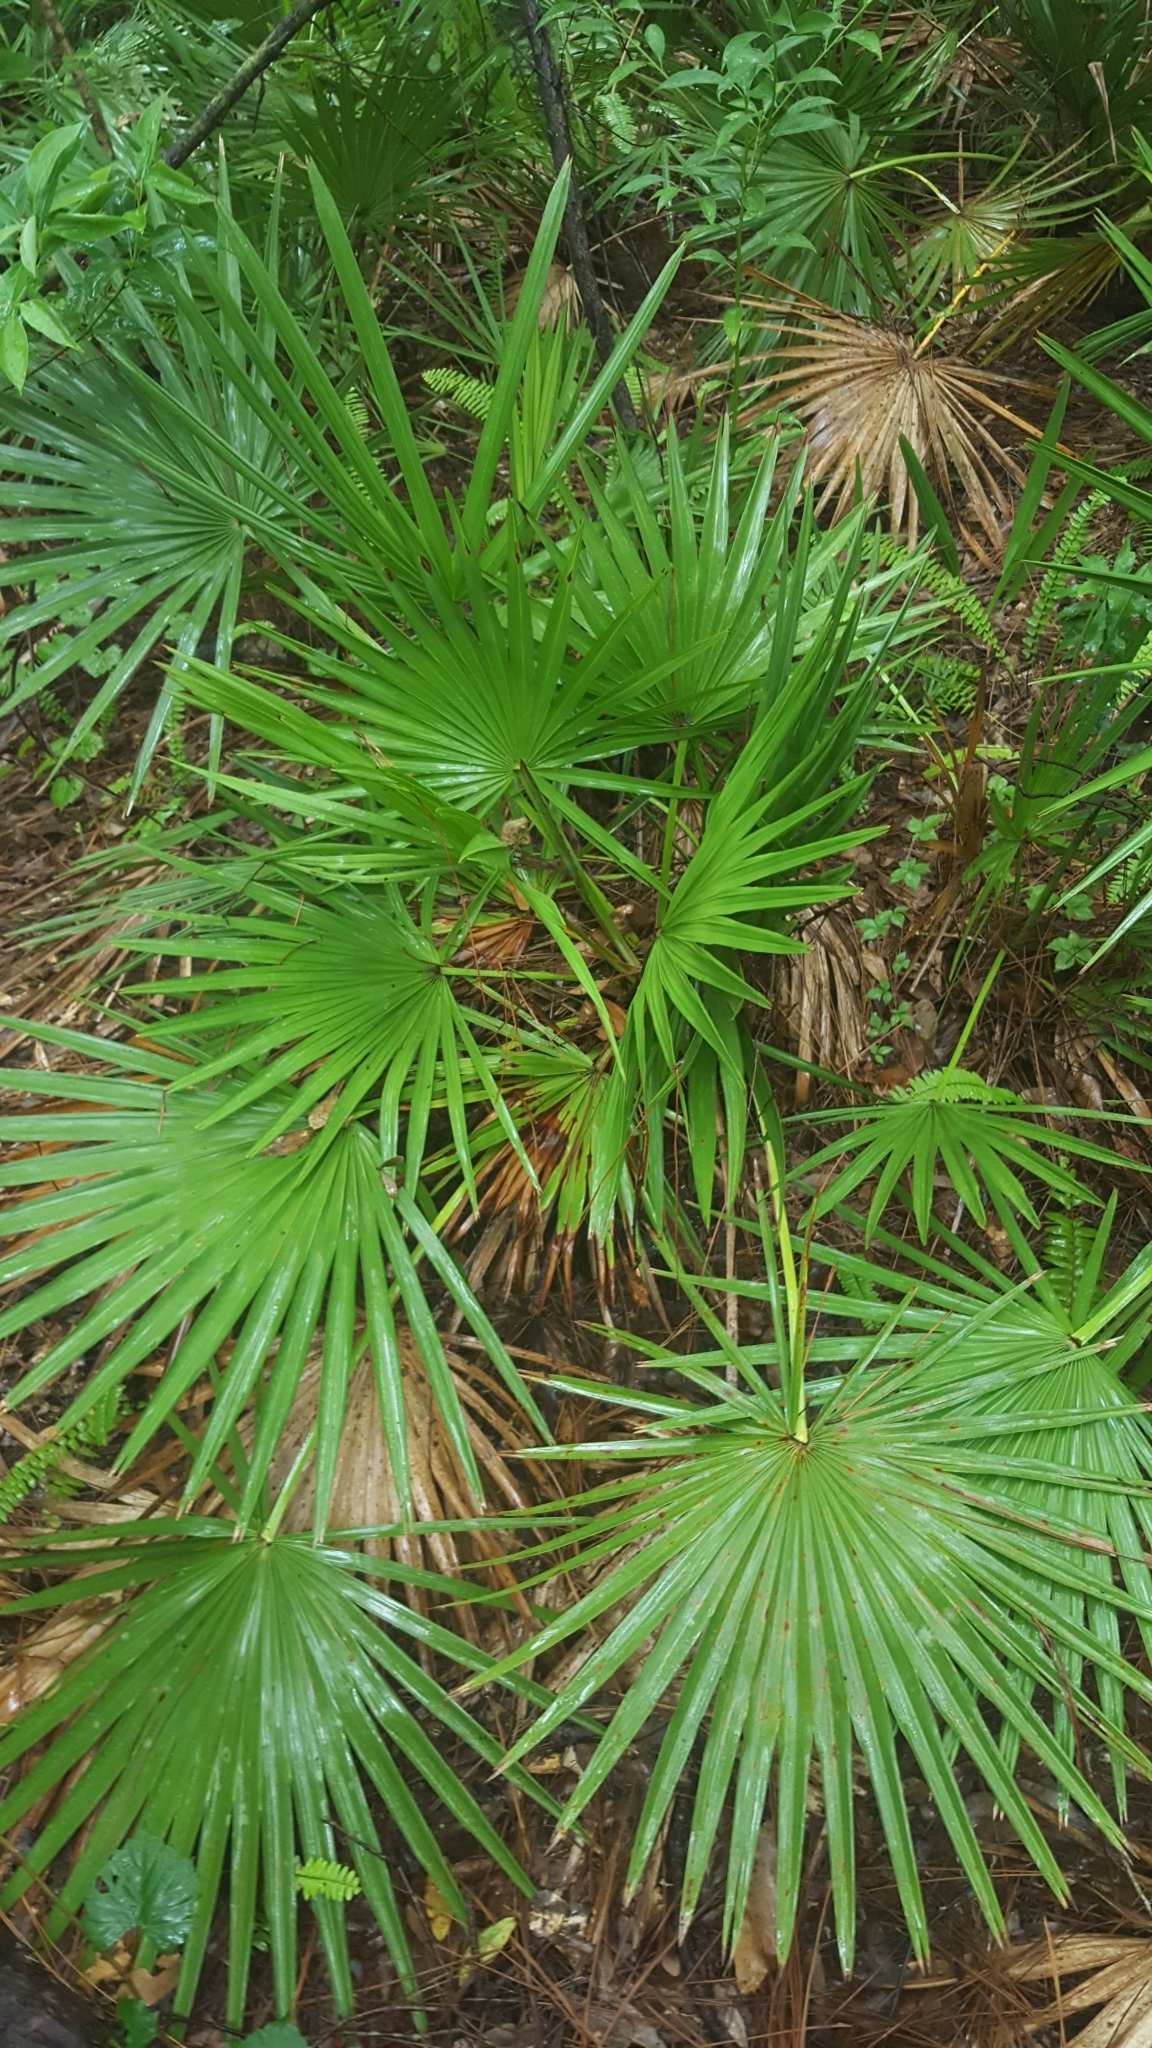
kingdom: Plantae
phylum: Tracheophyta
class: Liliopsida
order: Arecales
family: Arecaceae
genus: Serenoa
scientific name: Serenoa repens
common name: Saw-palmetto
